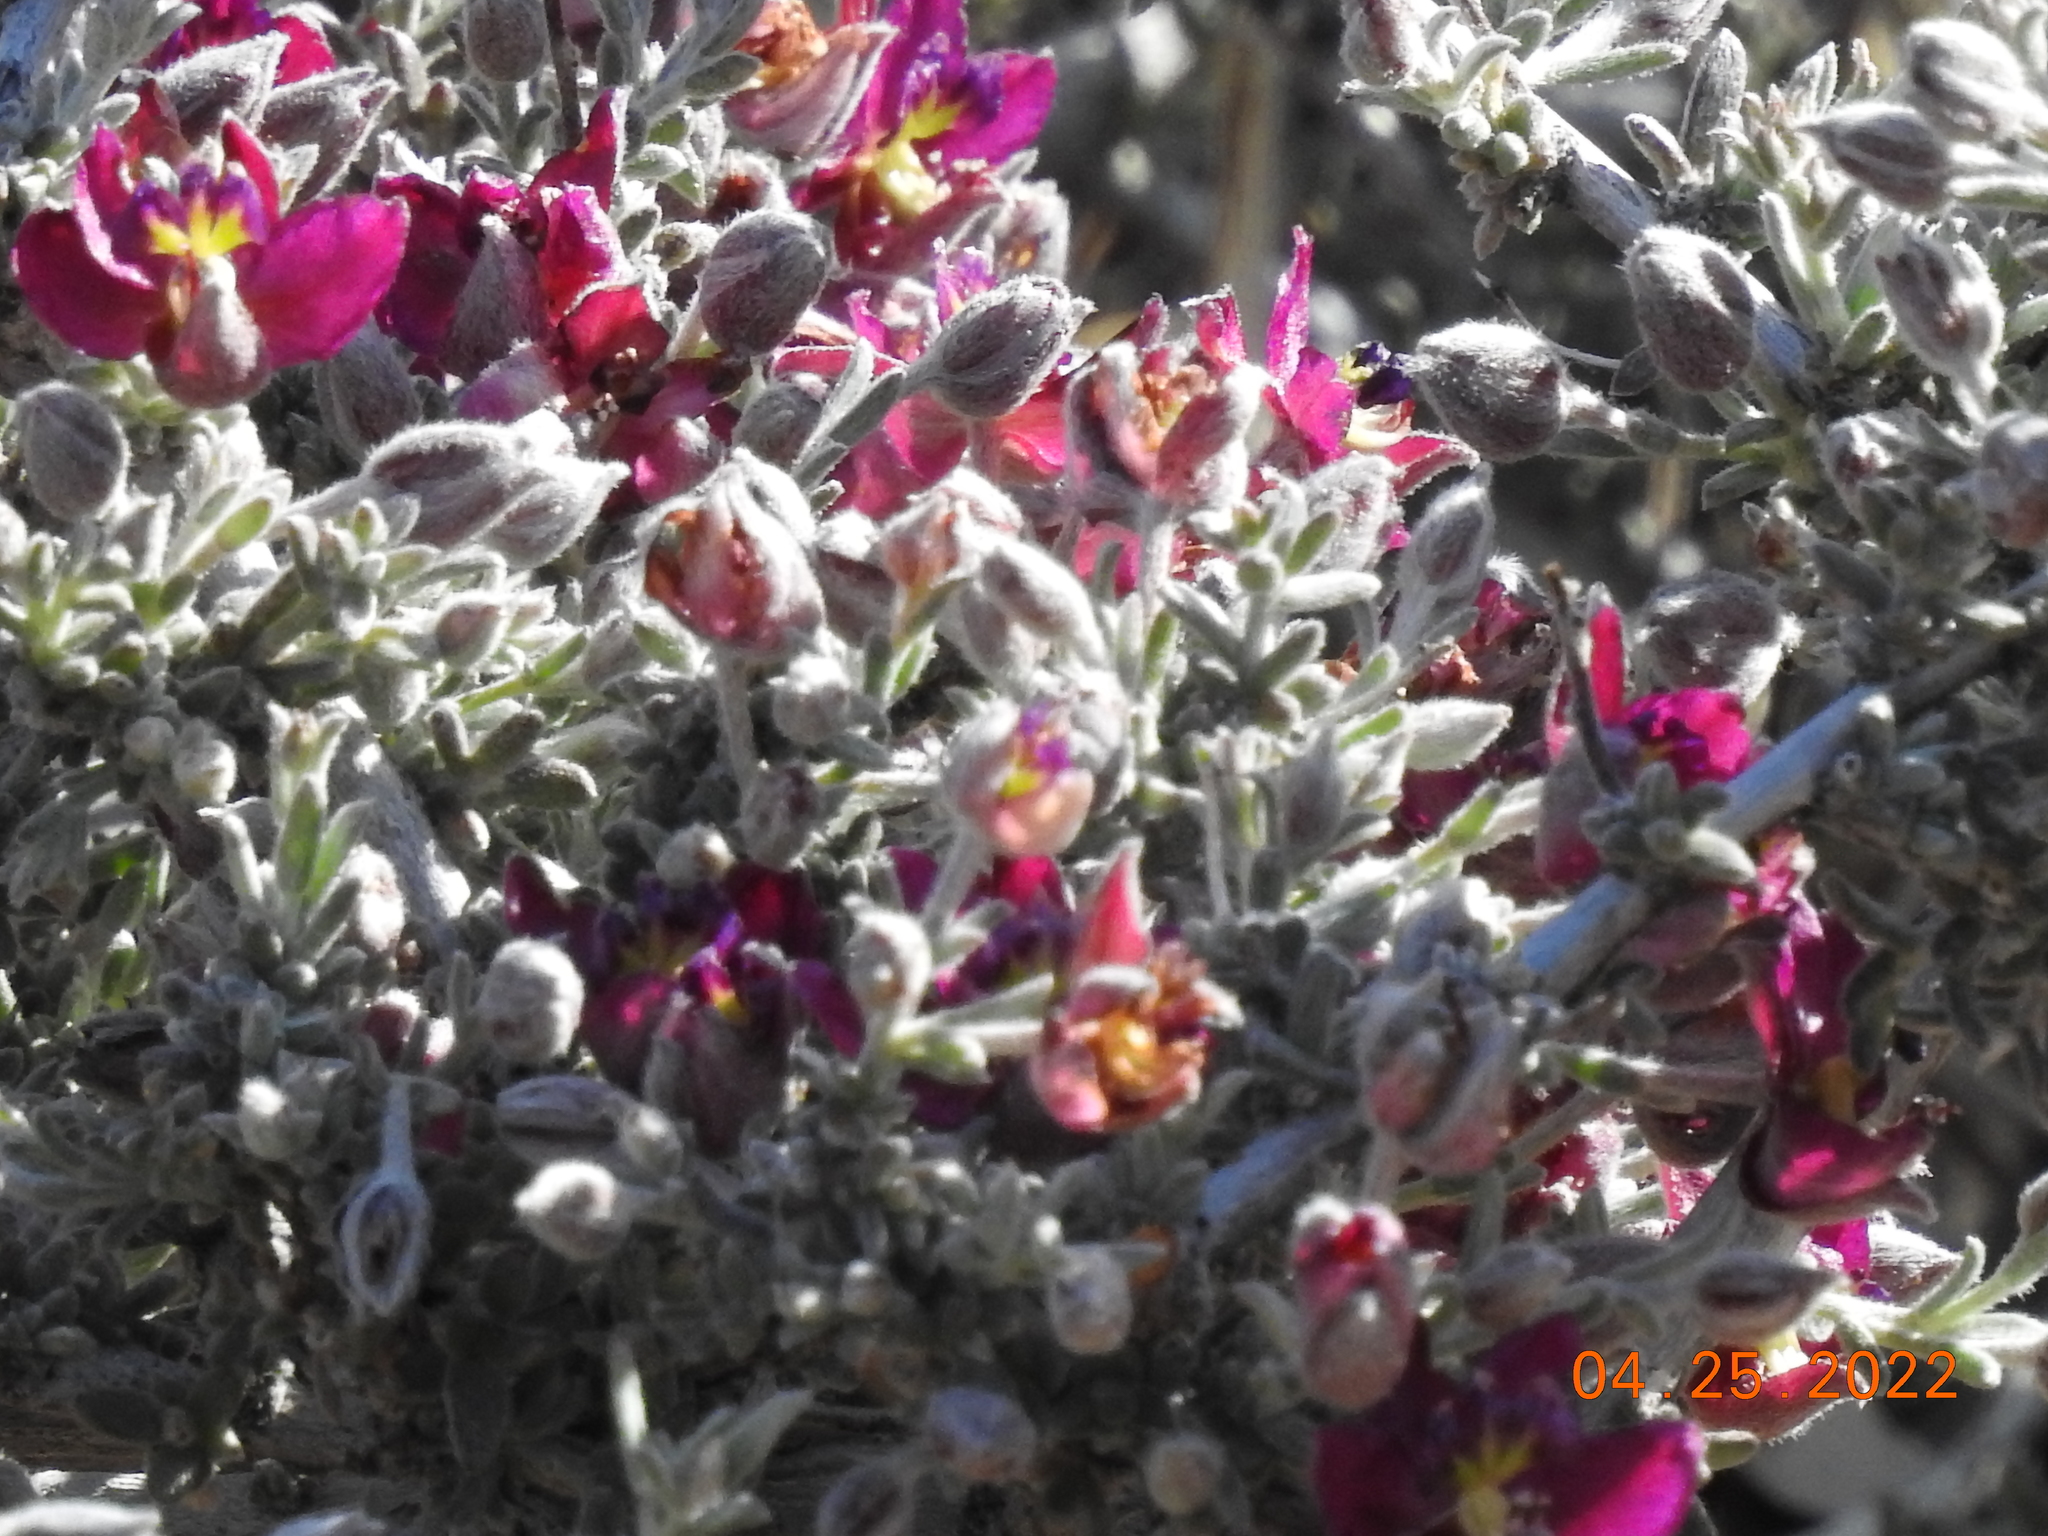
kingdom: Plantae
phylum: Tracheophyta
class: Magnoliopsida
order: Zygophyllales
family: Krameriaceae
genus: Krameria
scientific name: Krameria erecta
